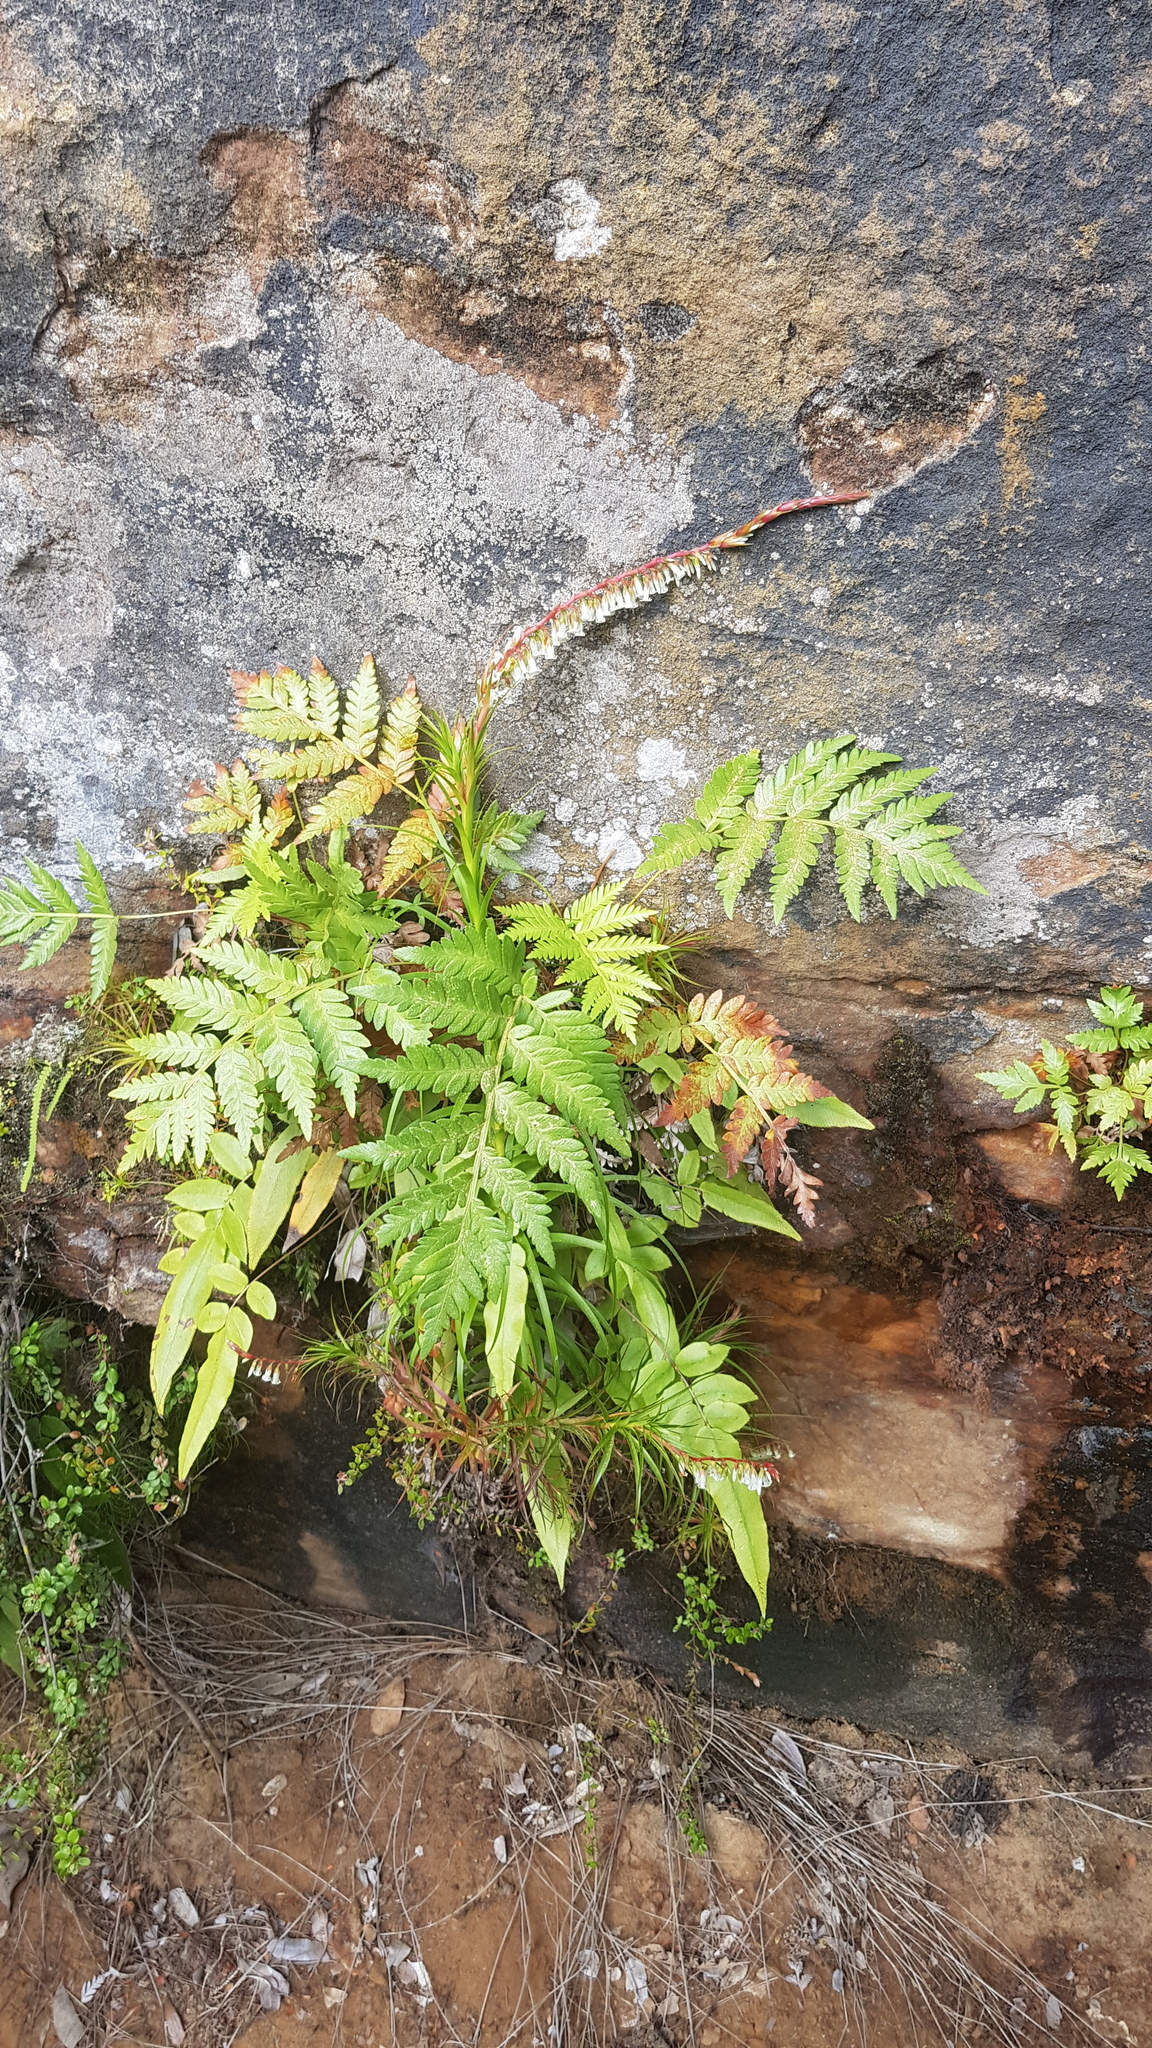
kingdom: Plantae
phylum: Tracheophyta
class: Magnoliopsida
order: Ericales
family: Ericaceae
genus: Dracophyllum
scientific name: Dracophyllum secundum
